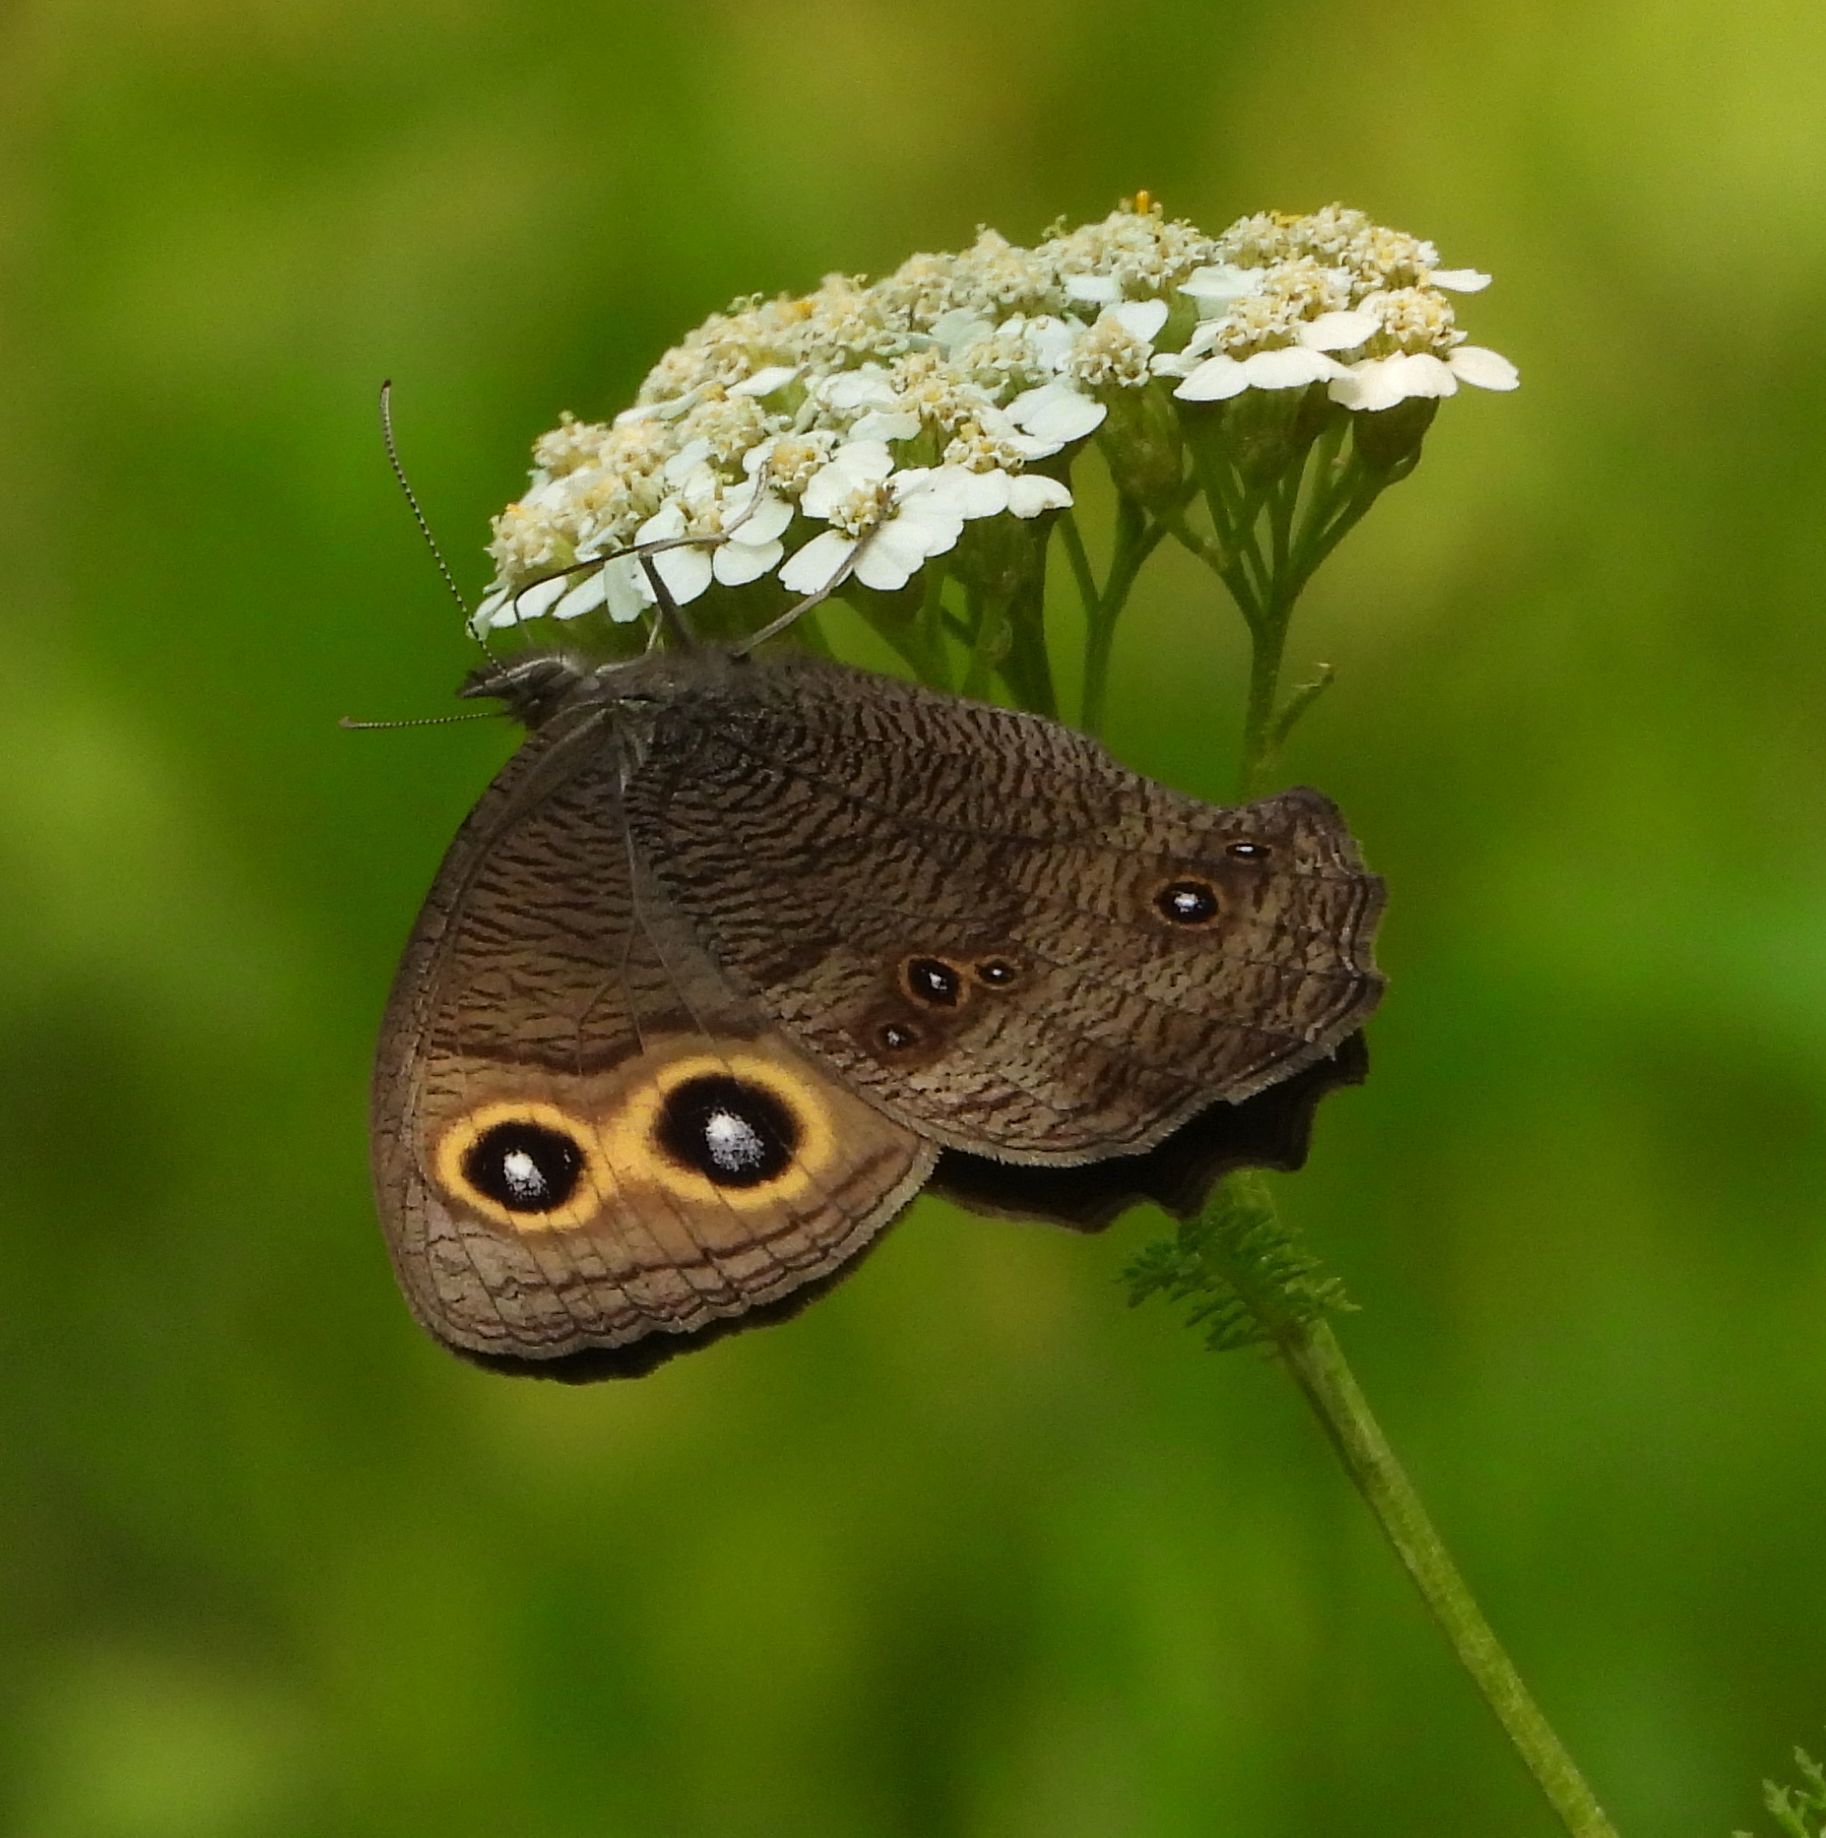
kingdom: Animalia
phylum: Arthropoda
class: Insecta
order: Lepidoptera
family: Nymphalidae
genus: Cercyonis
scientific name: Cercyonis pegala
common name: Common wood-nymph
